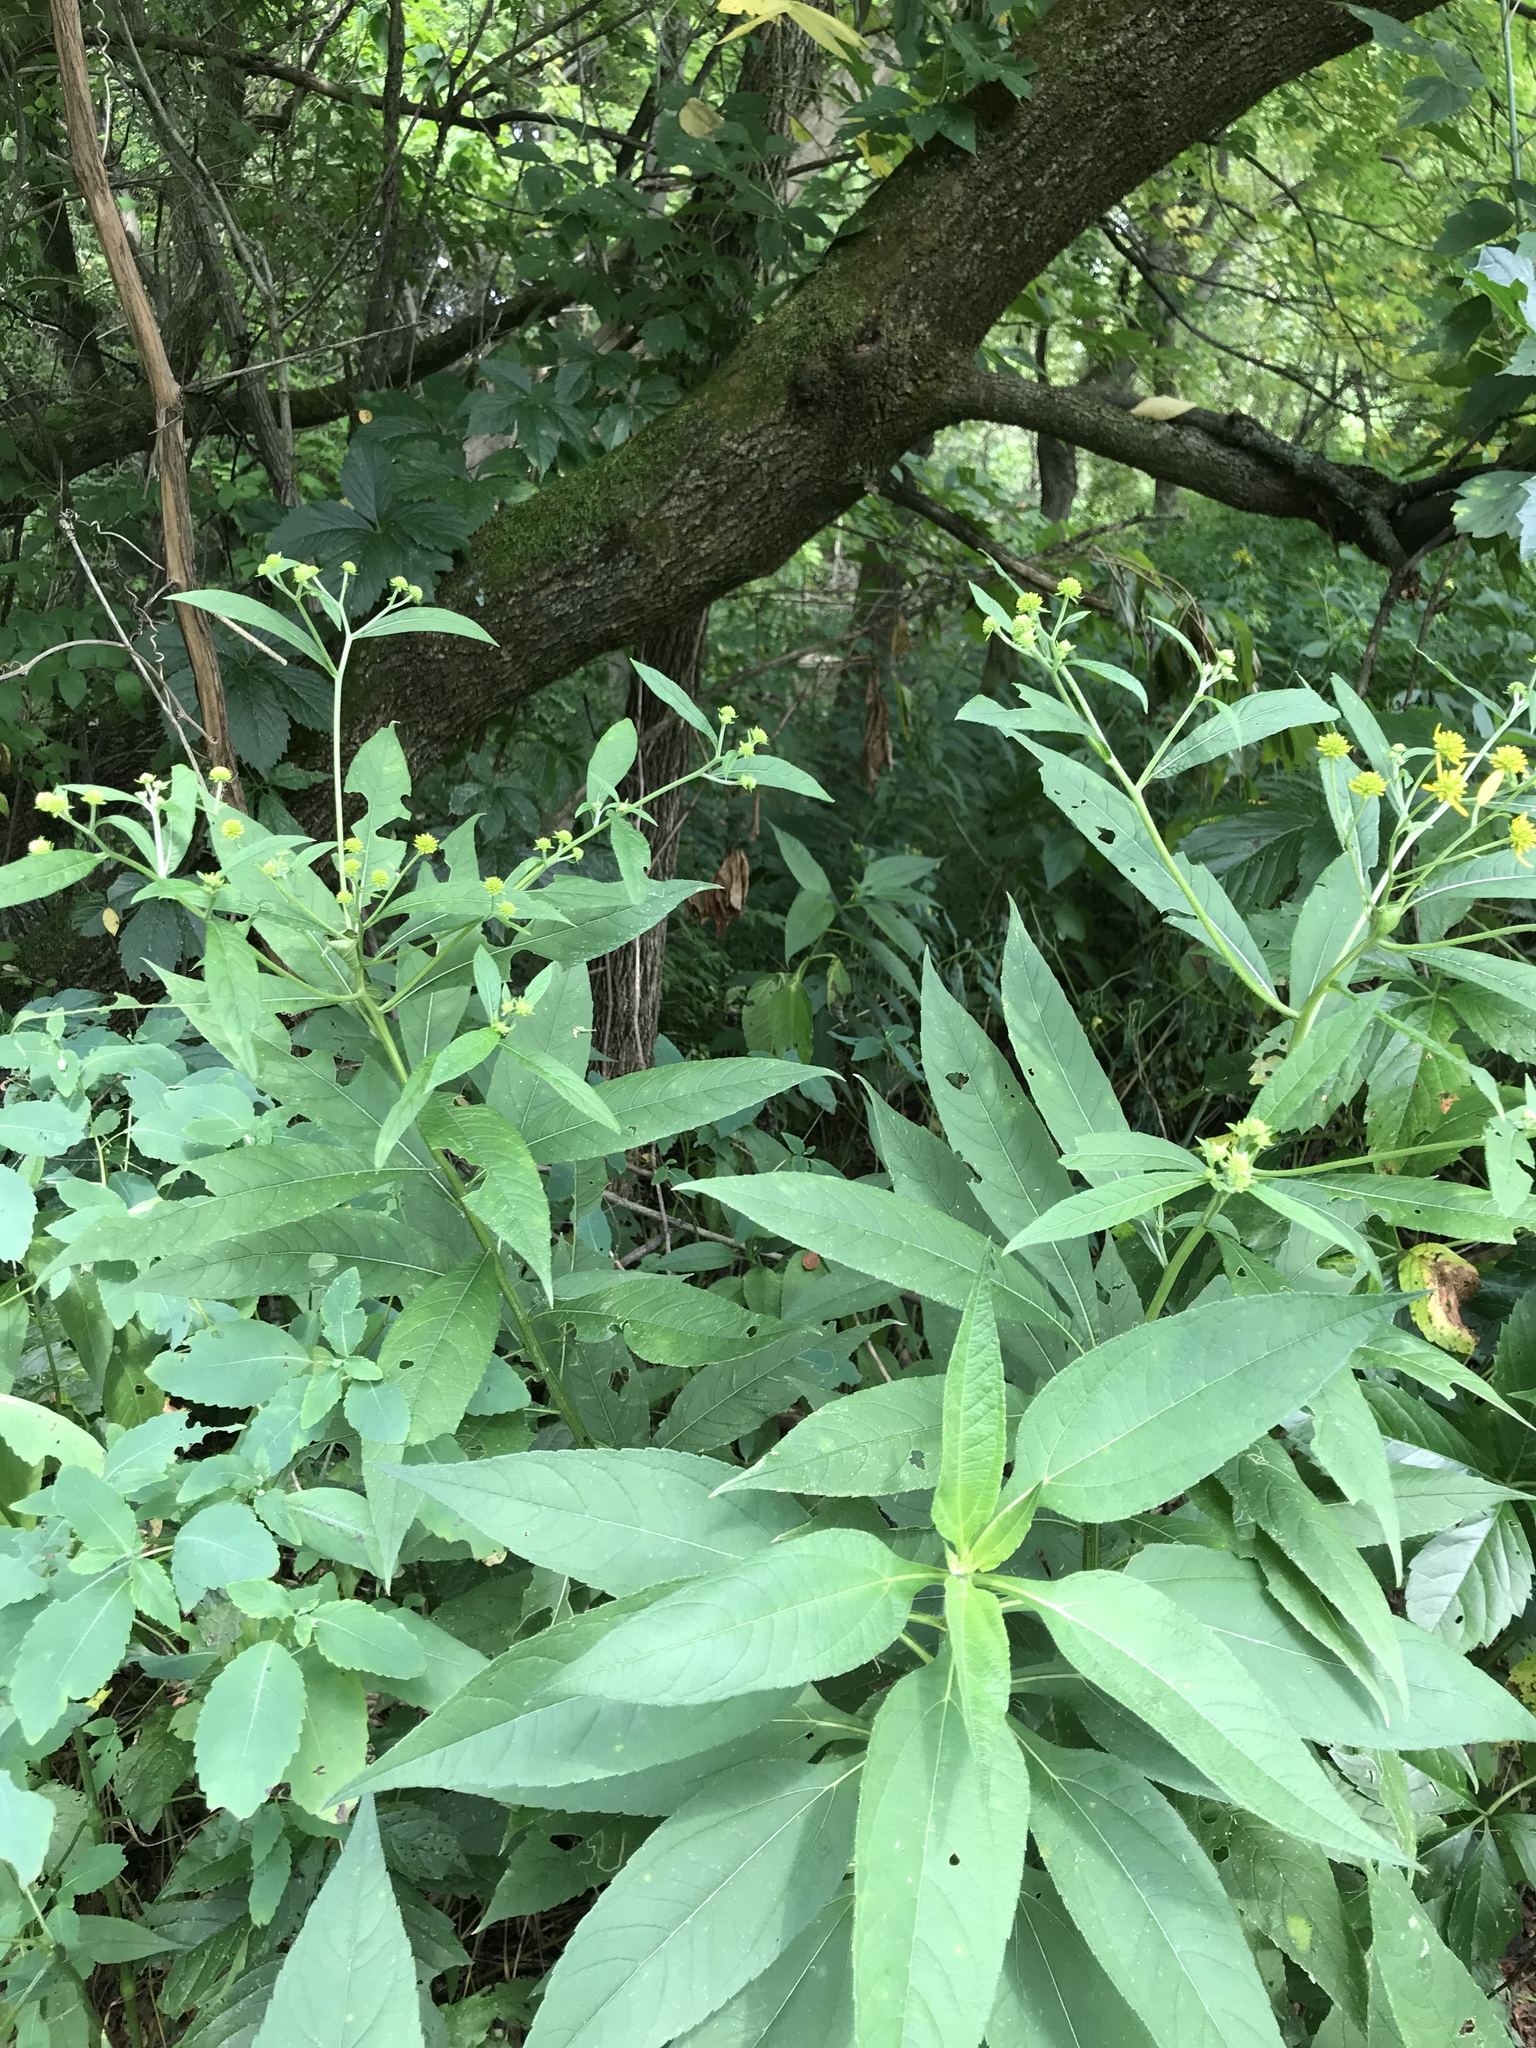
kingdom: Plantae
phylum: Tracheophyta
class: Magnoliopsida
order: Asterales
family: Asteraceae
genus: Verbesina
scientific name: Verbesina alternifolia
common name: Wingstem
